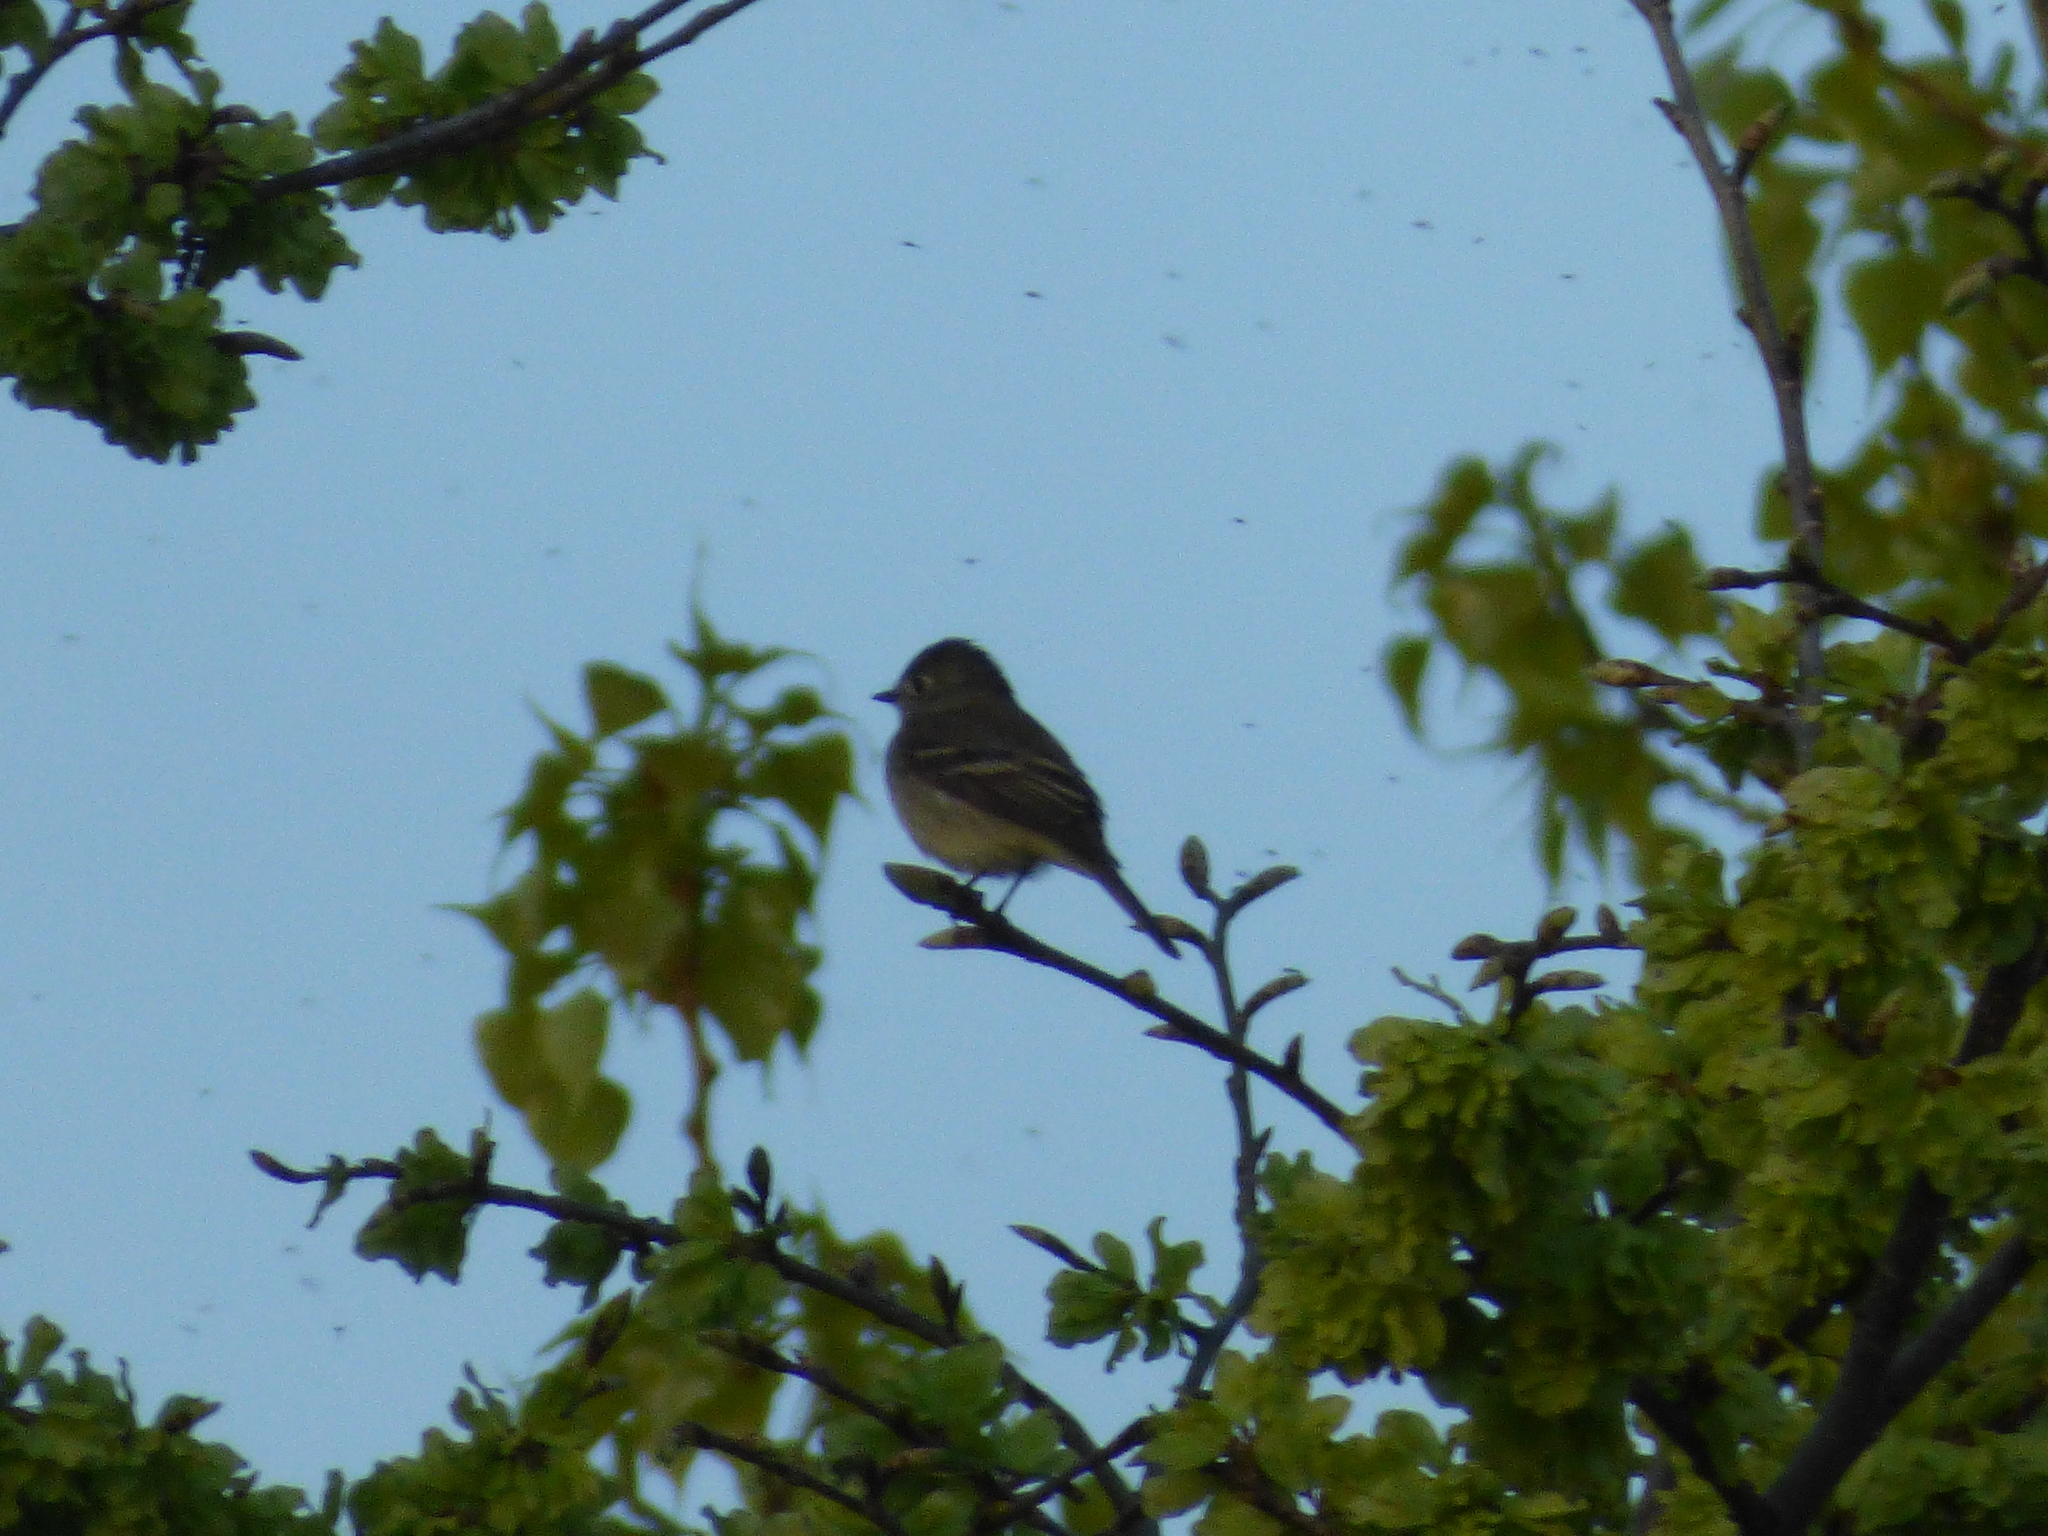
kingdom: Animalia
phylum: Chordata
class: Aves
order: Passeriformes
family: Tyrannidae
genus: Empidonax
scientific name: Empidonax minimus
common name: Least flycatcher
